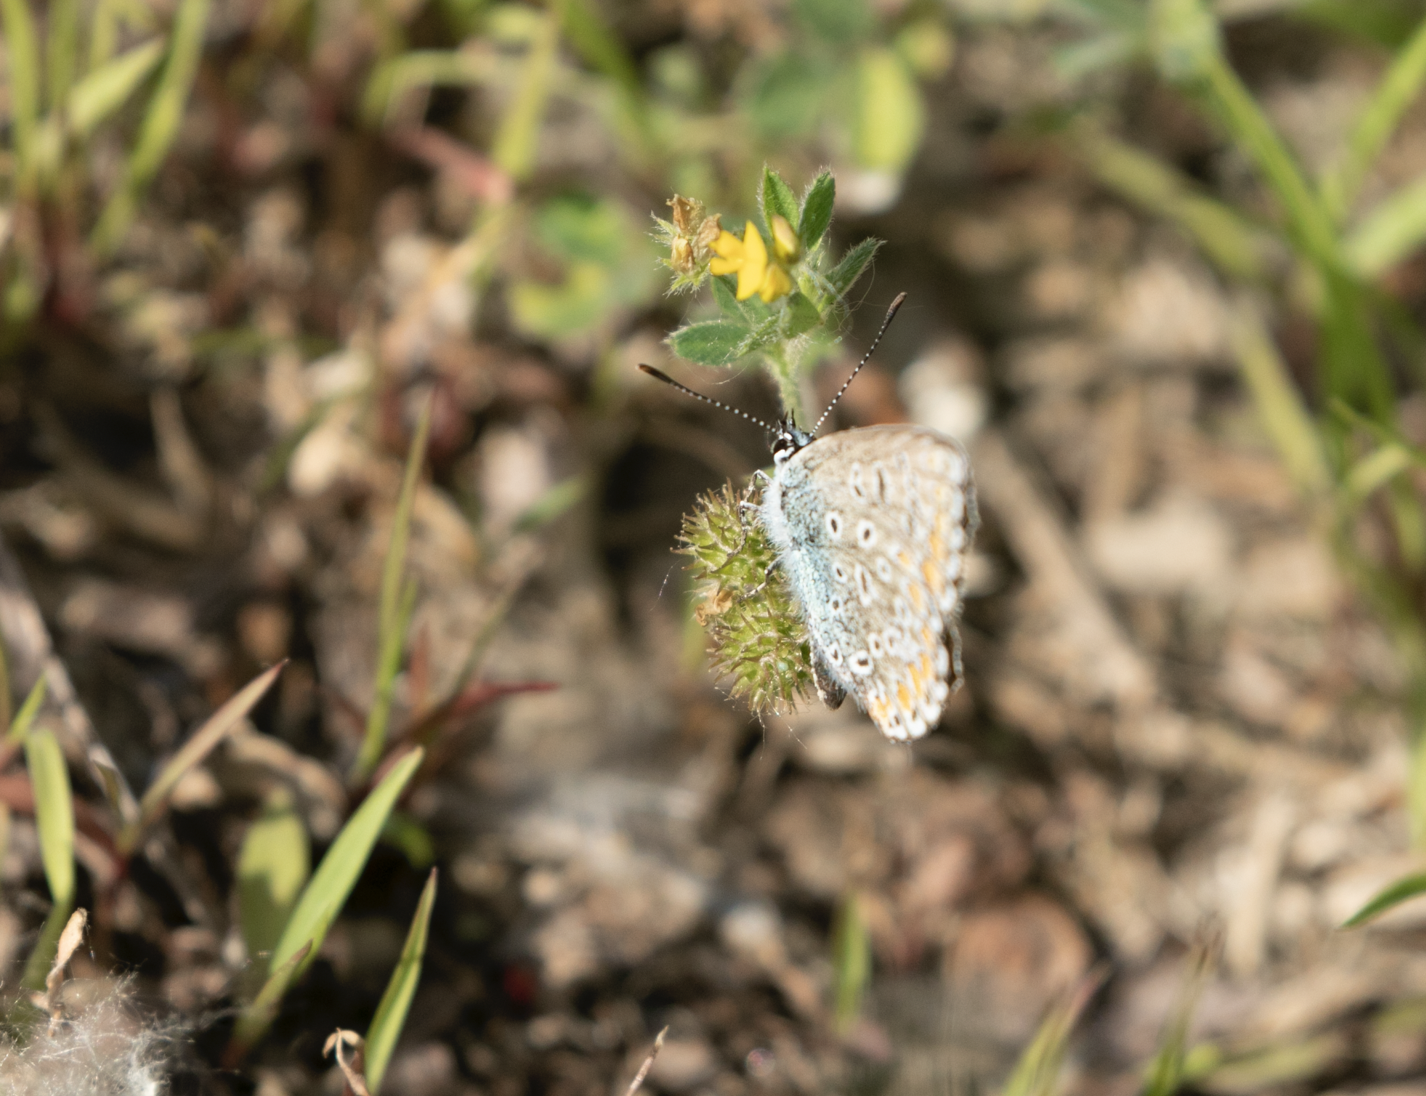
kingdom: Animalia
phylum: Arthropoda
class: Insecta
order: Lepidoptera
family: Lycaenidae
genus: Polyommatus
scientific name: Polyommatus icarus
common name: Common blue
